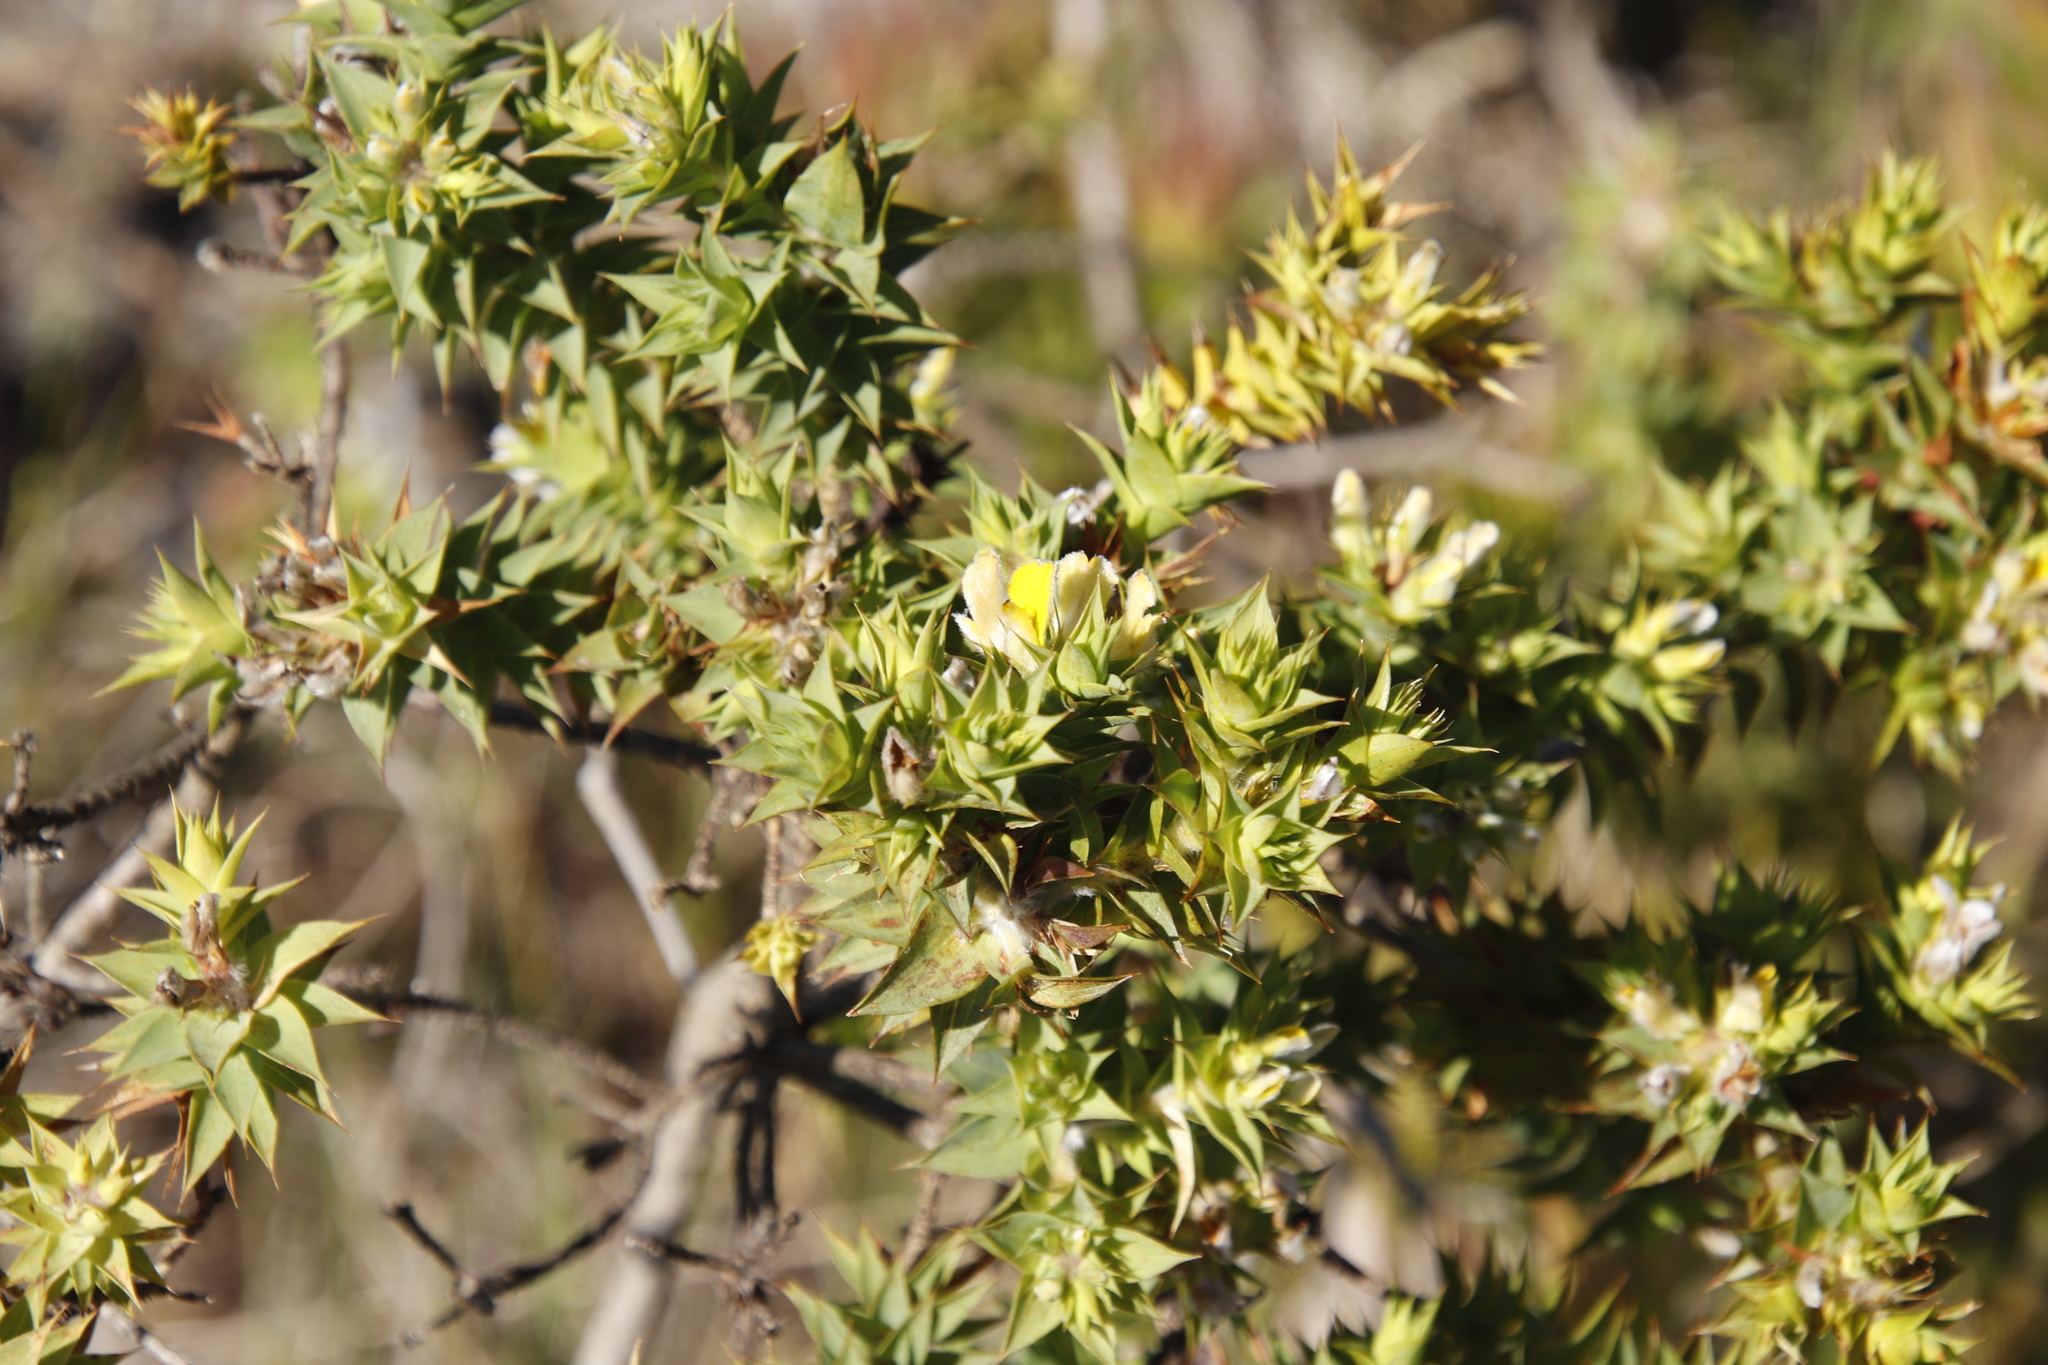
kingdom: Plantae
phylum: Tracheophyta
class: Magnoliopsida
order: Fabales
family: Fabaceae
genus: Aspalathus
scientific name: Aspalathus cordata
